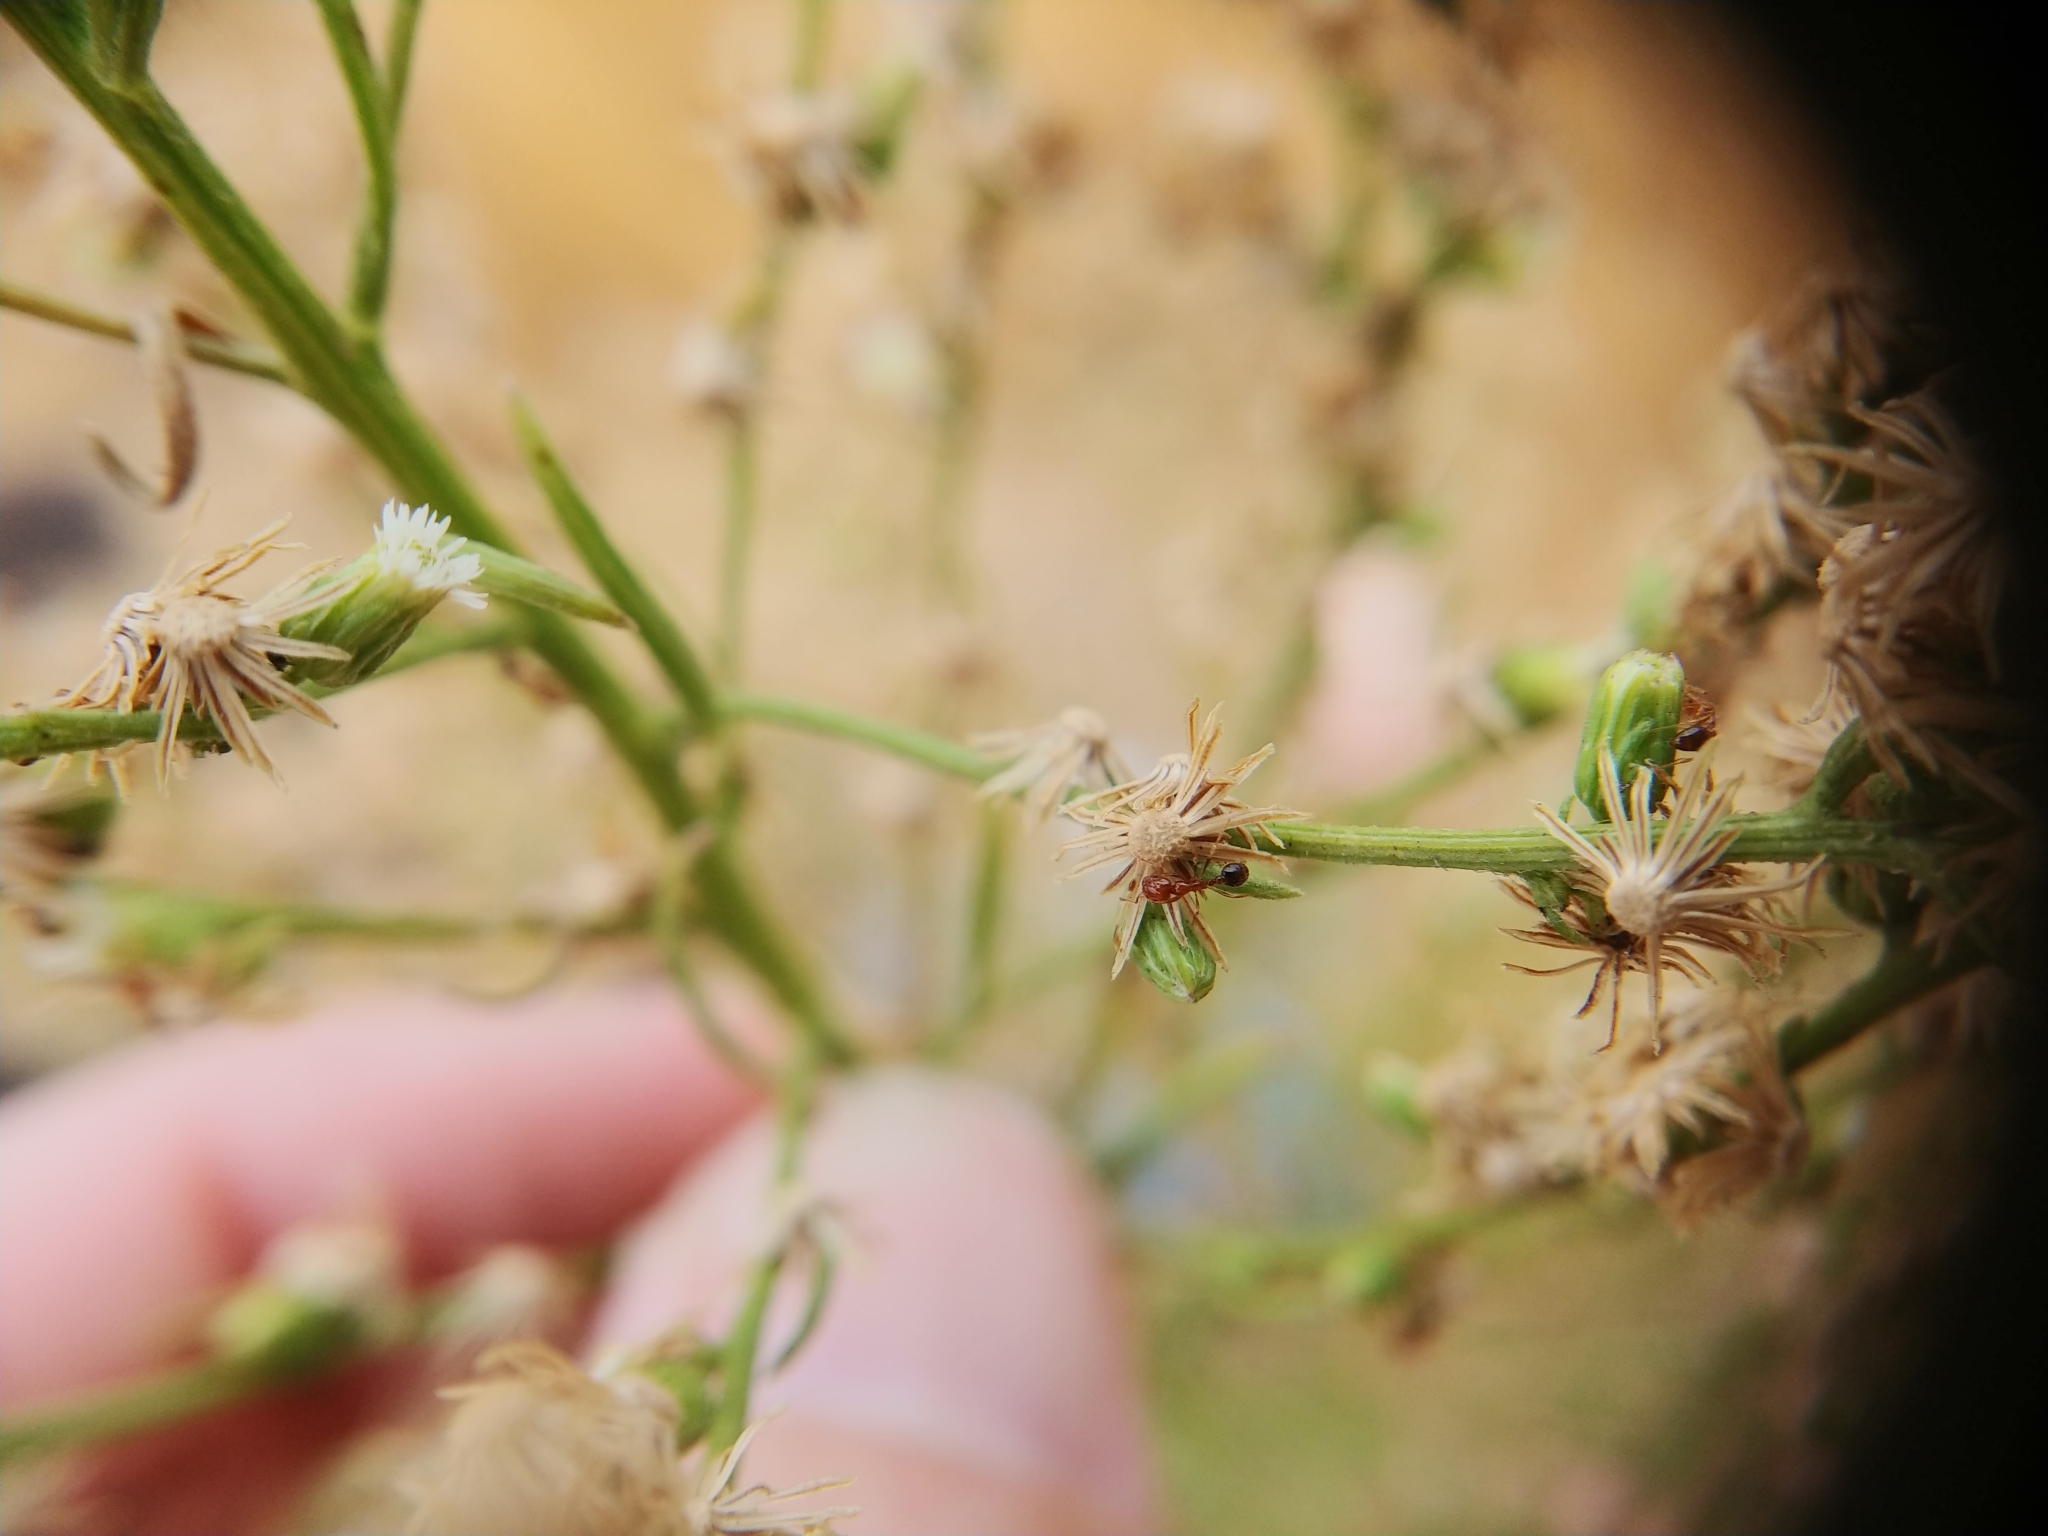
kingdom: Animalia
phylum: Arthropoda
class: Insecta
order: Hymenoptera
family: Formicidae
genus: Solenopsis
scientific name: Solenopsis xyloni
